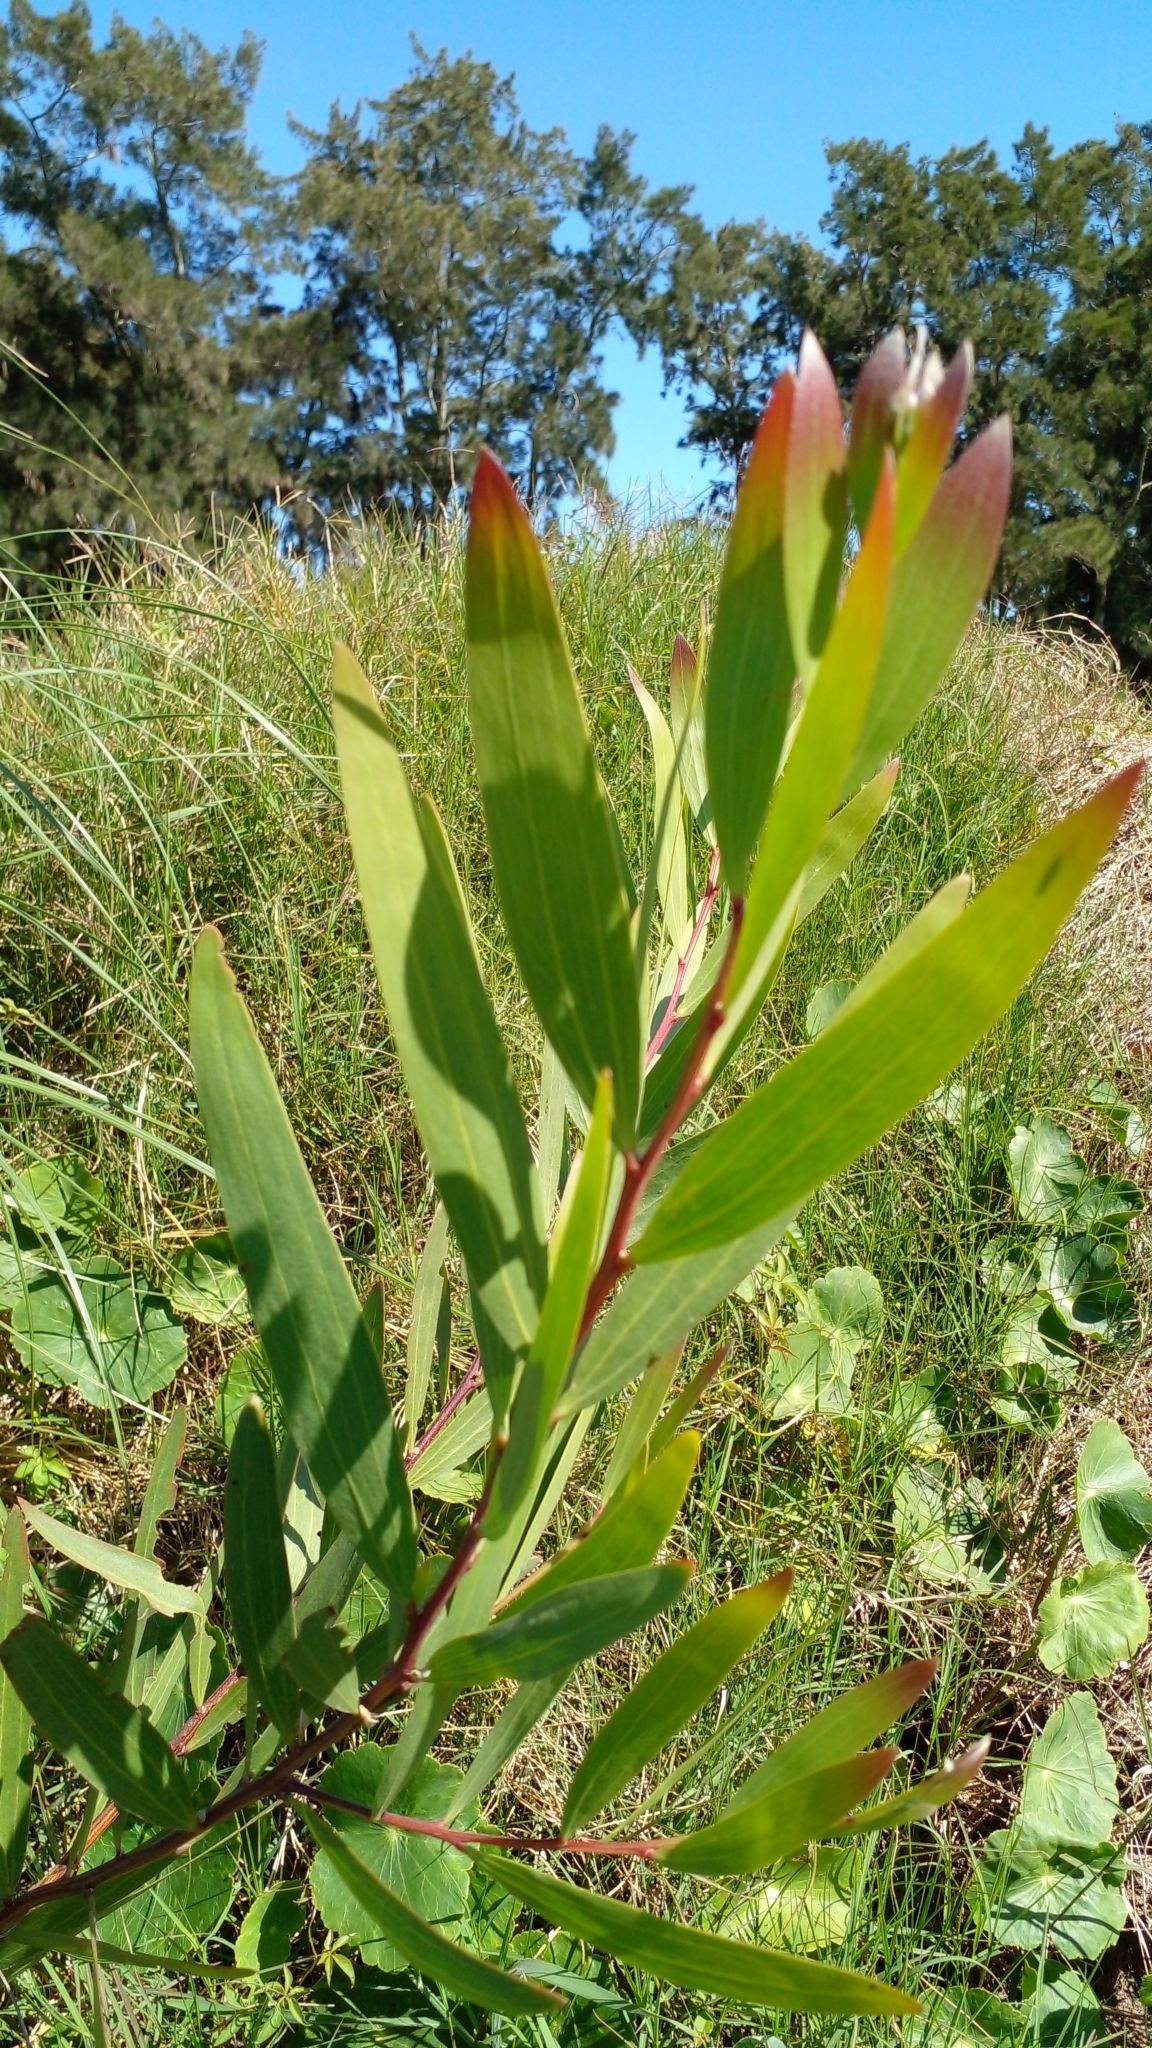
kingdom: Plantae
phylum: Tracheophyta
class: Magnoliopsida
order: Fabales
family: Fabaceae
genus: Acacia
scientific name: Acacia longifolia
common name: Sydney golden wattle
